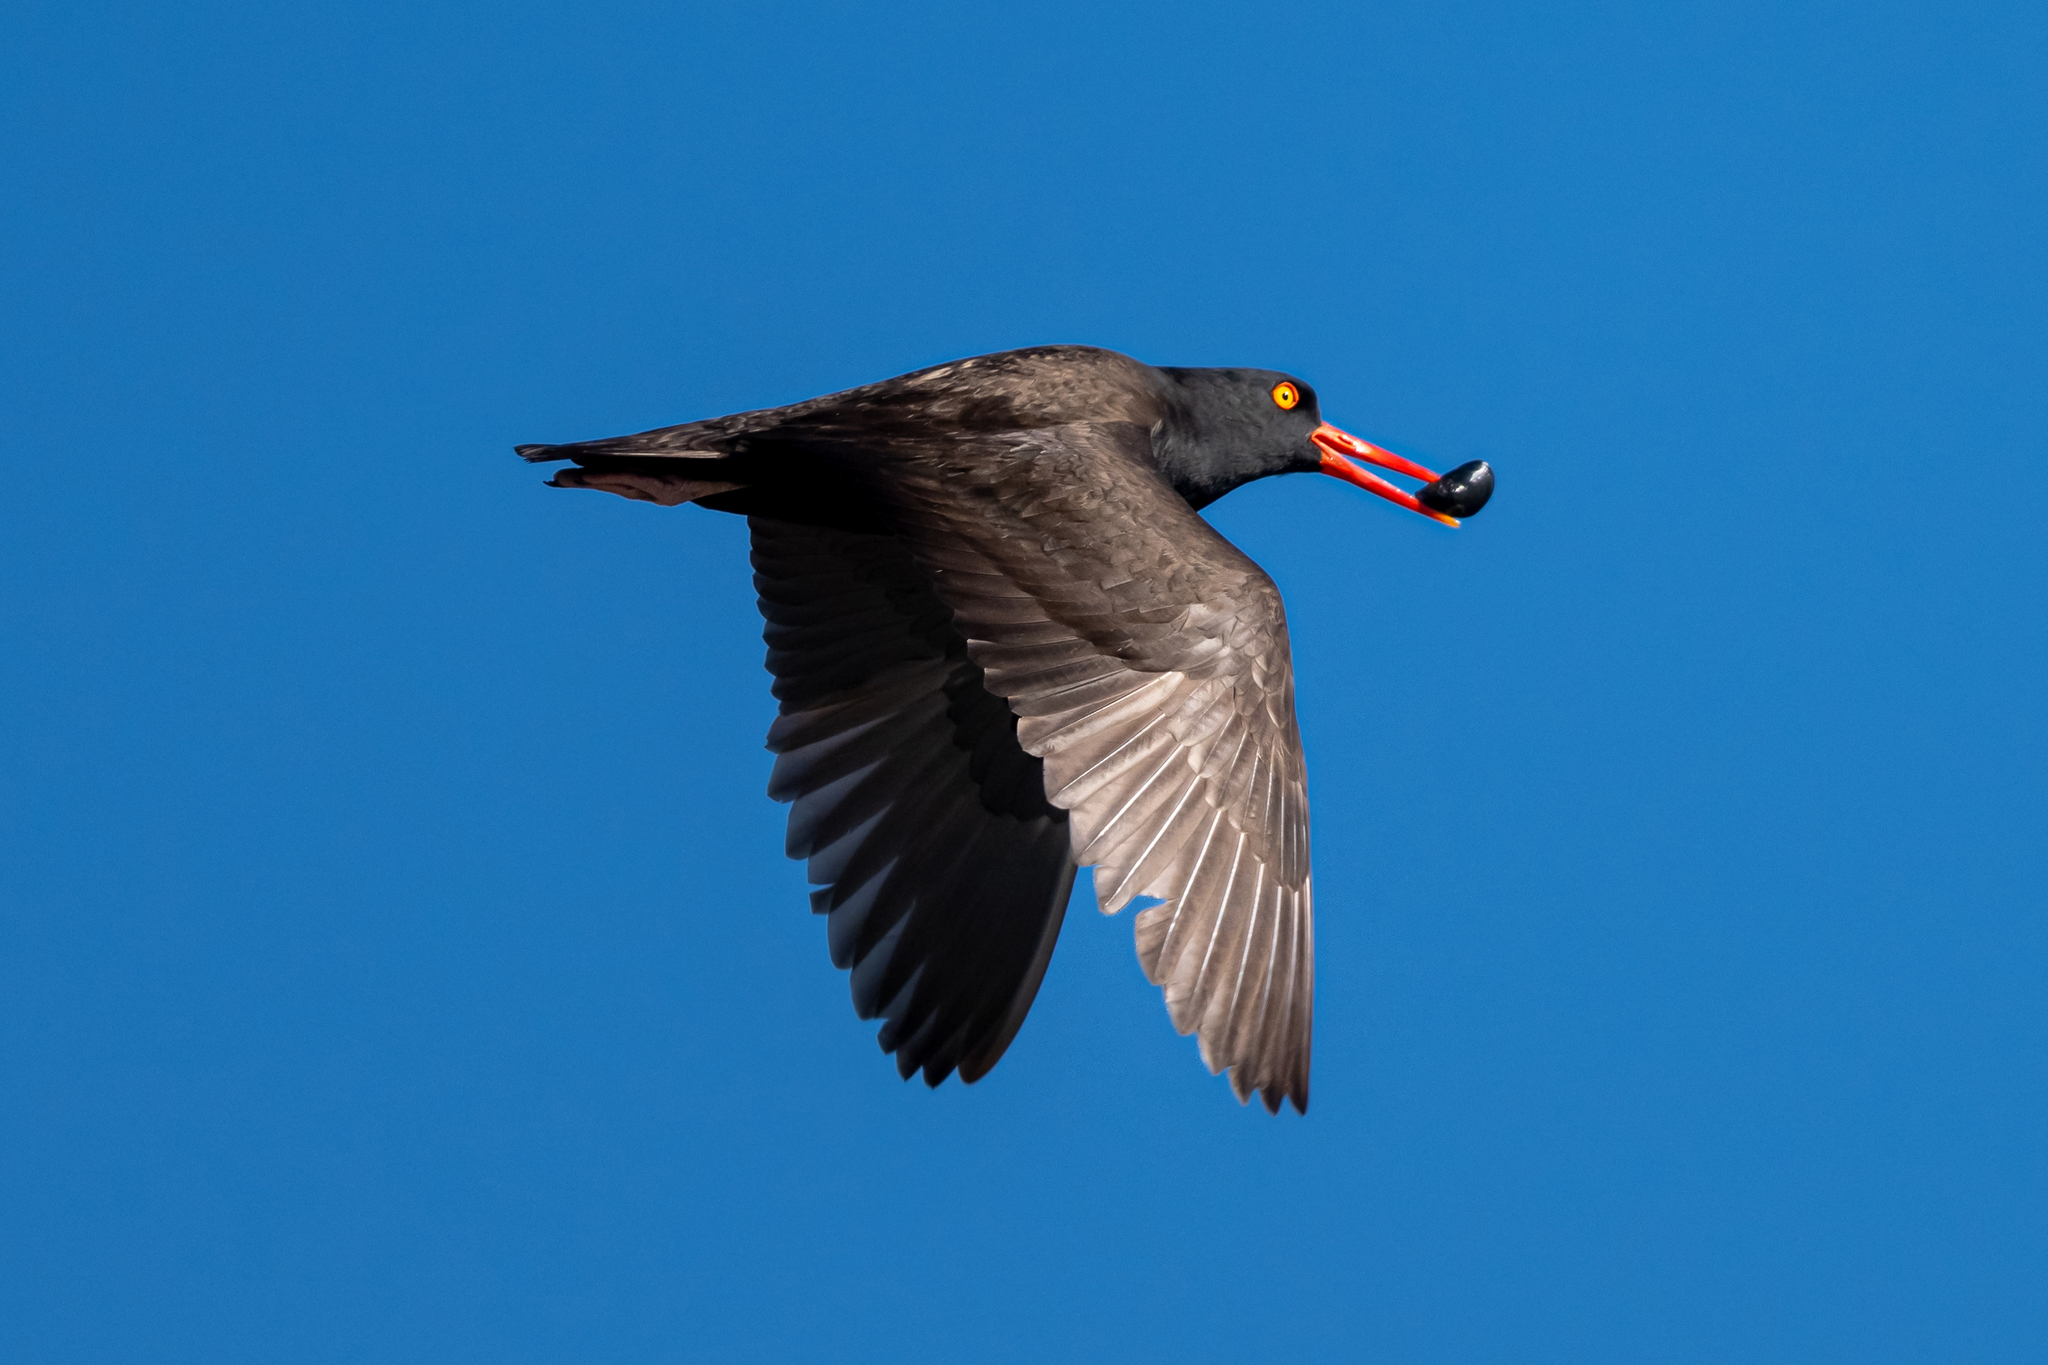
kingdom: Animalia
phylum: Chordata
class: Aves
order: Charadriiformes
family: Haematopodidae
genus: Haematopus
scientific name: Haematopus bachmani
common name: Black oystercatcher
